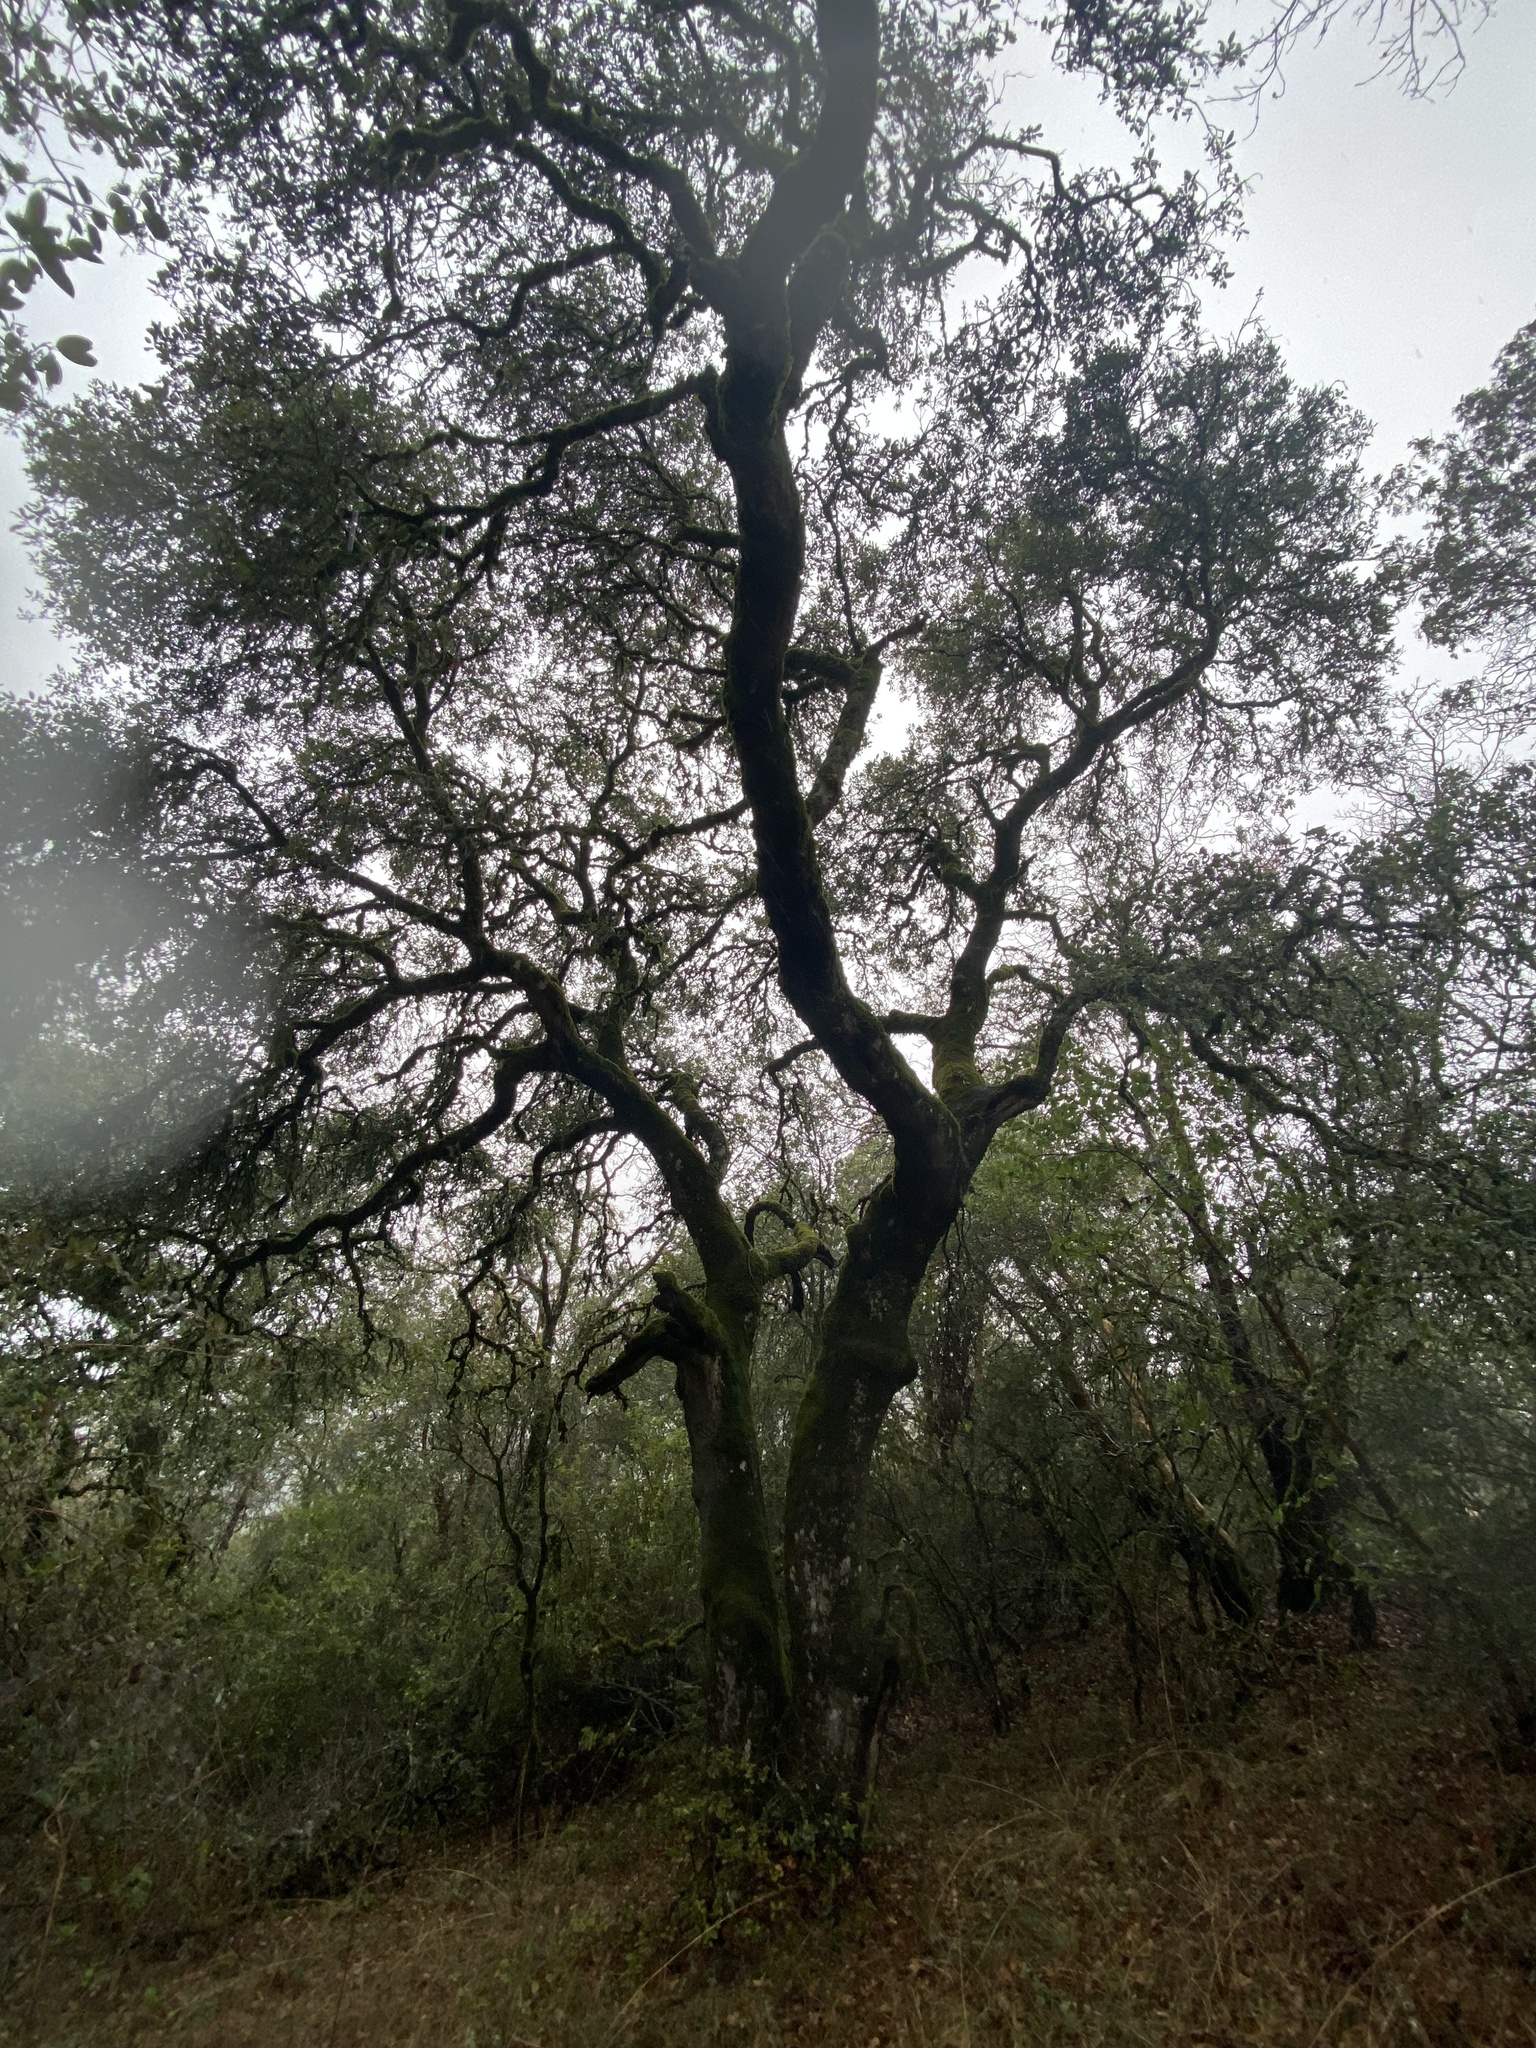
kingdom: Plantae
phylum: Tracheophyta
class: Magnoliopsida
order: Fagales
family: Fagaceae
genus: Quercus
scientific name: Quercus agrifolia
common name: California live oak
